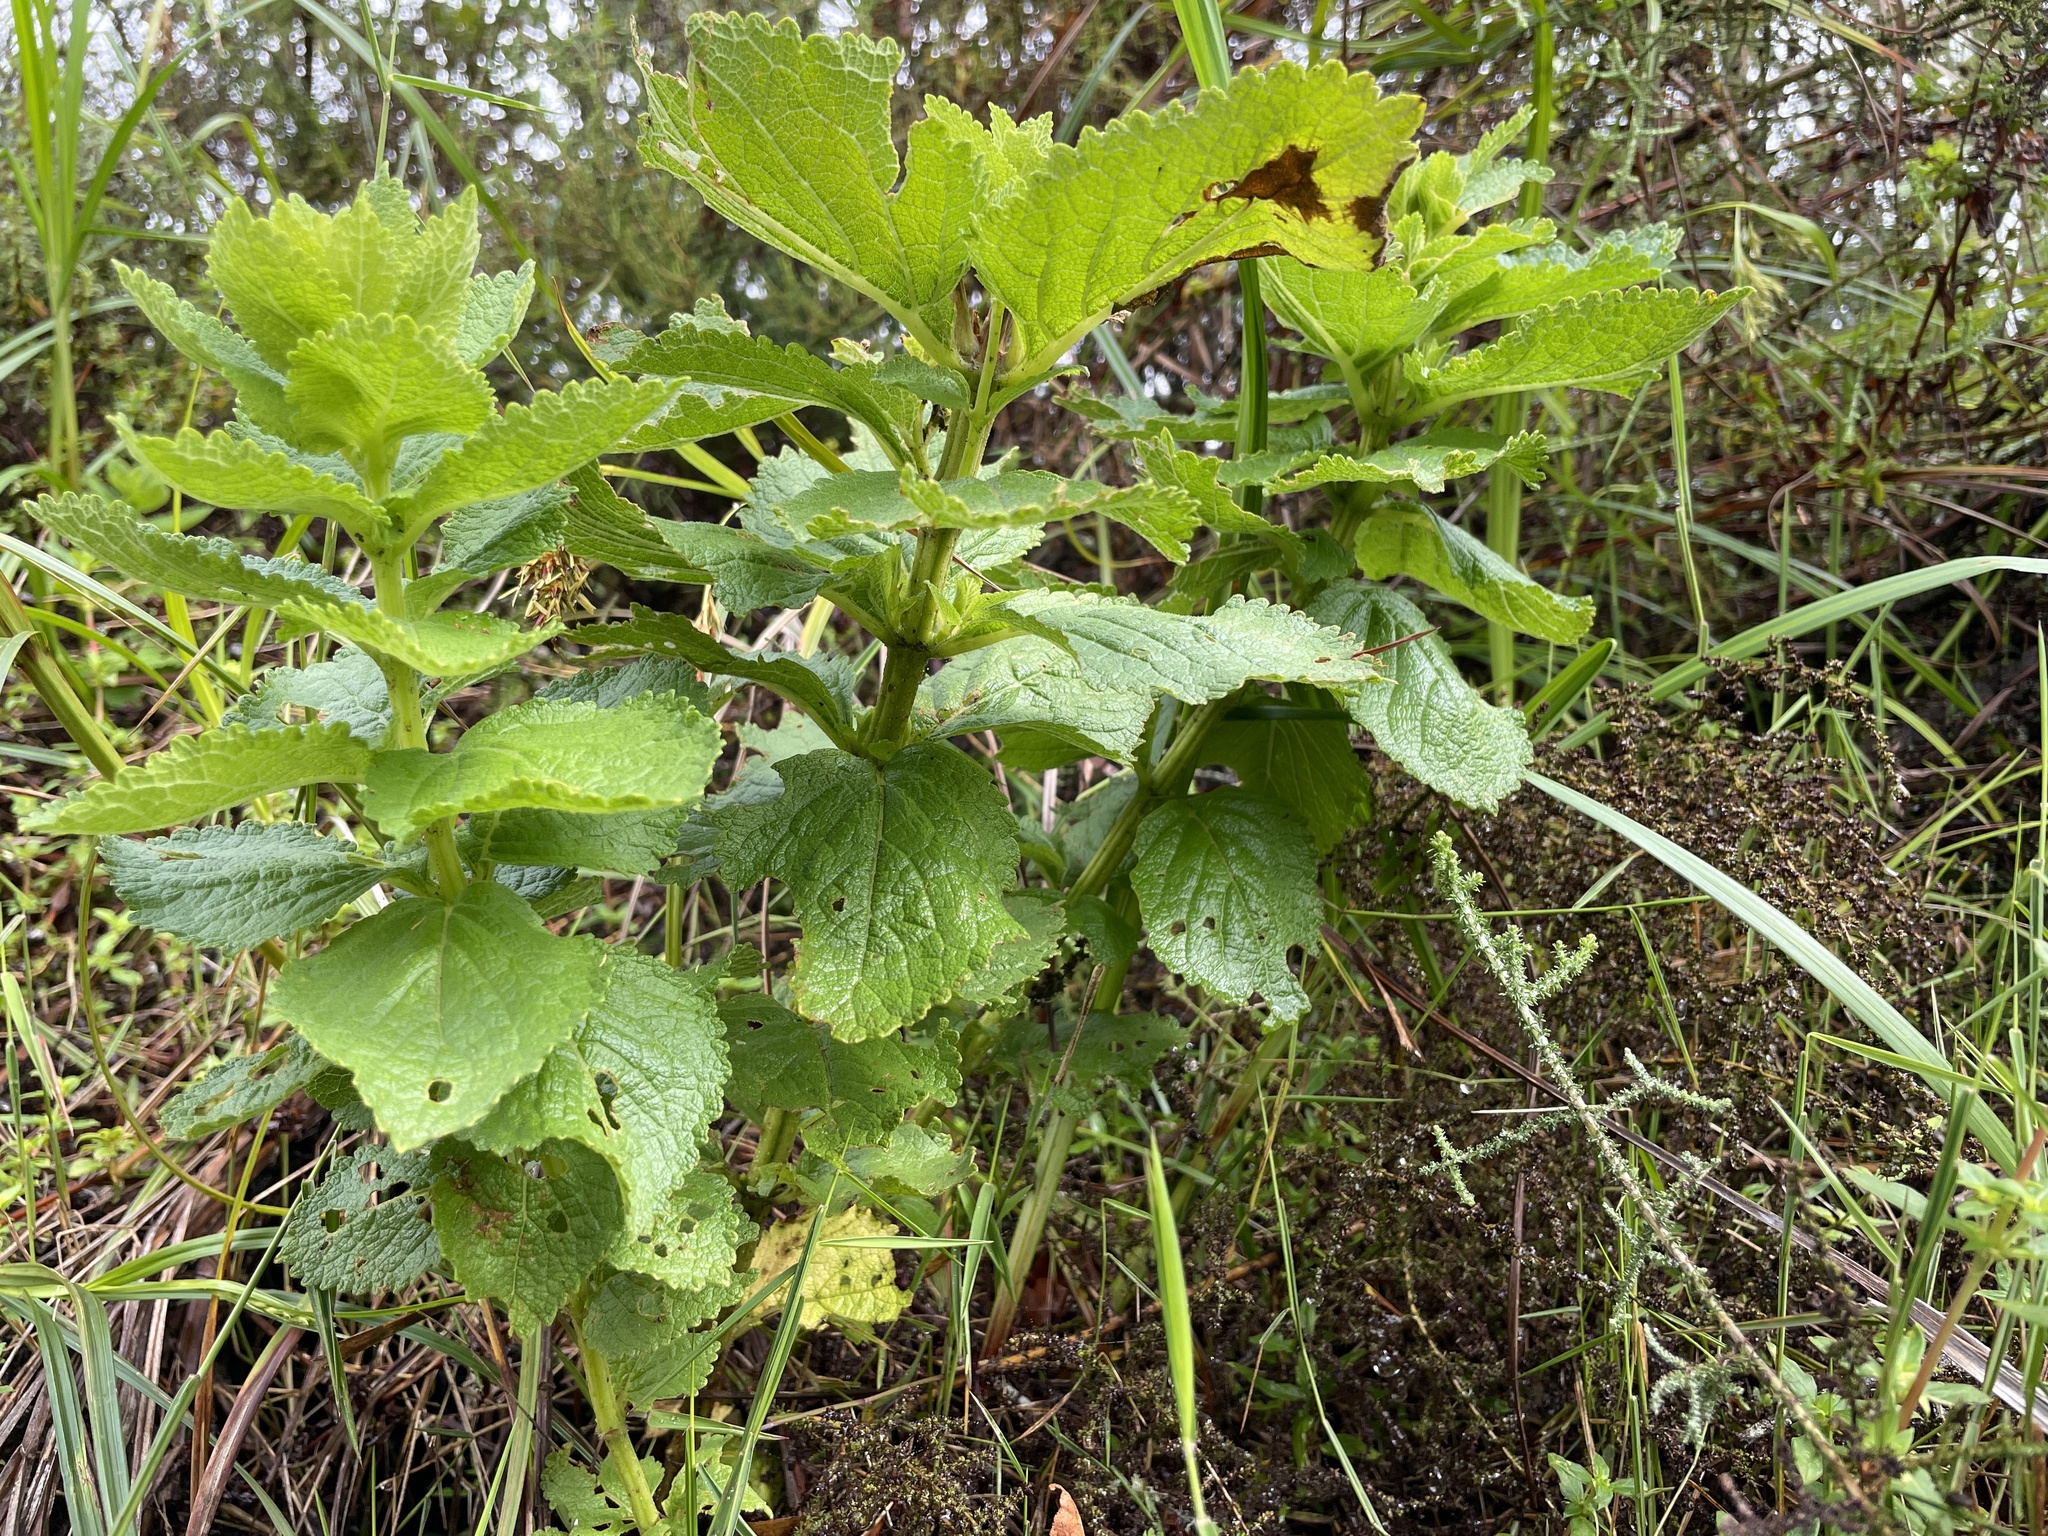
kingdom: Plantae
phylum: Tracheophyta
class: Magnoliopsida
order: Lamiales
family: Lamiaceae
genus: Coleus
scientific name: Coleus calycinus
